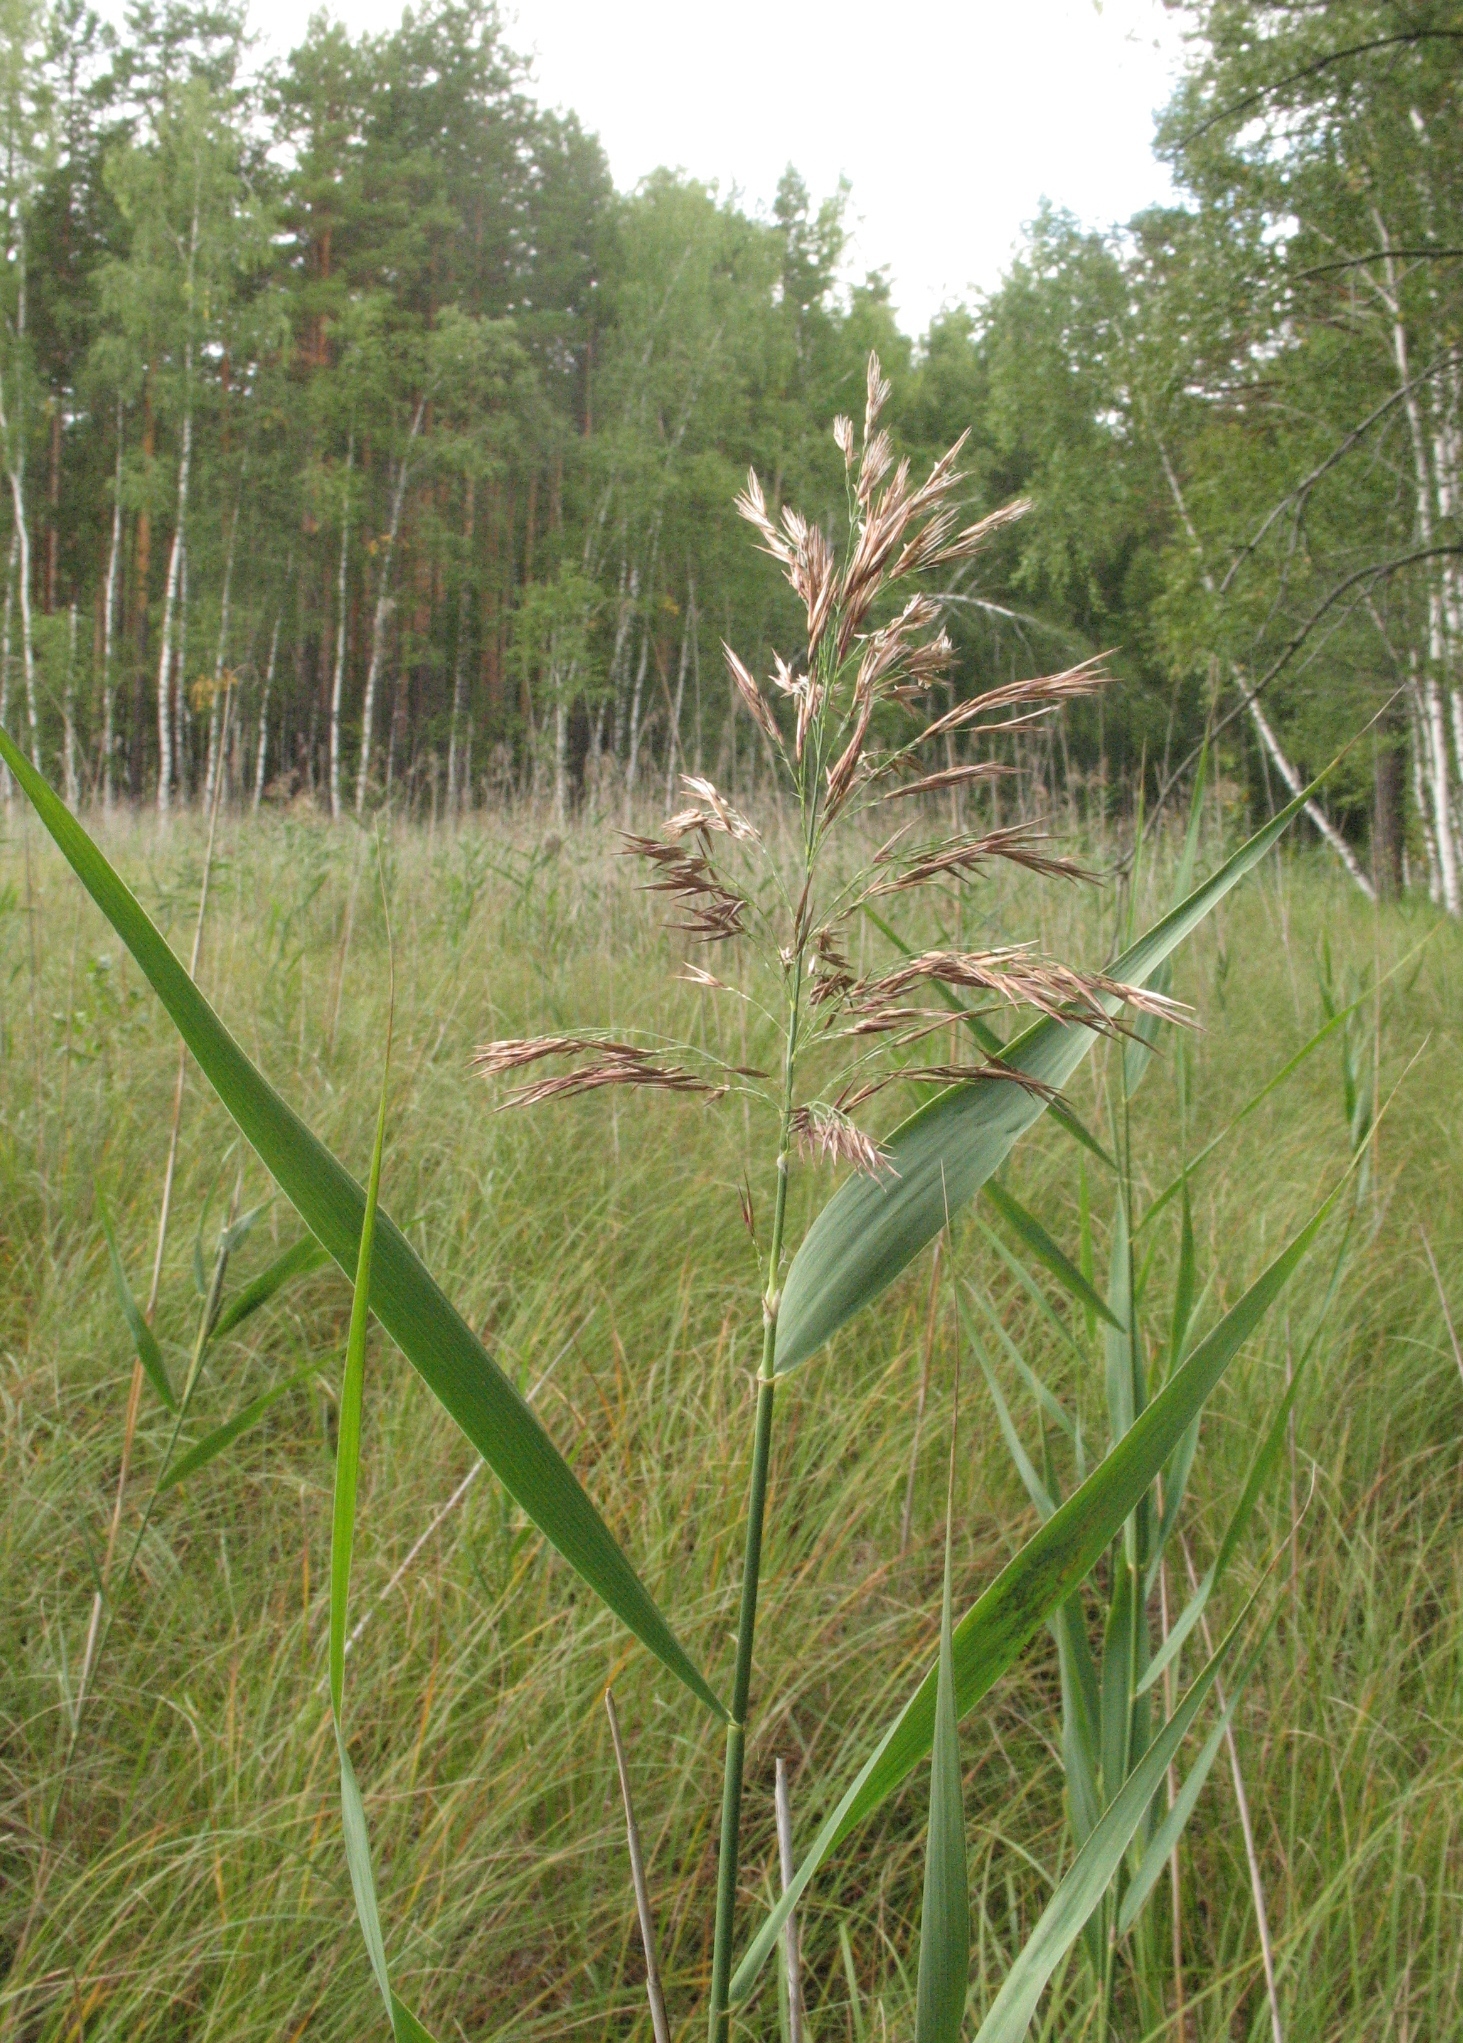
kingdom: Plantae
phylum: Tracheophyta
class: Liliopsida
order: Poales
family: Poaceae
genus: Phragmites
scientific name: Phragmites australis
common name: Common reed
